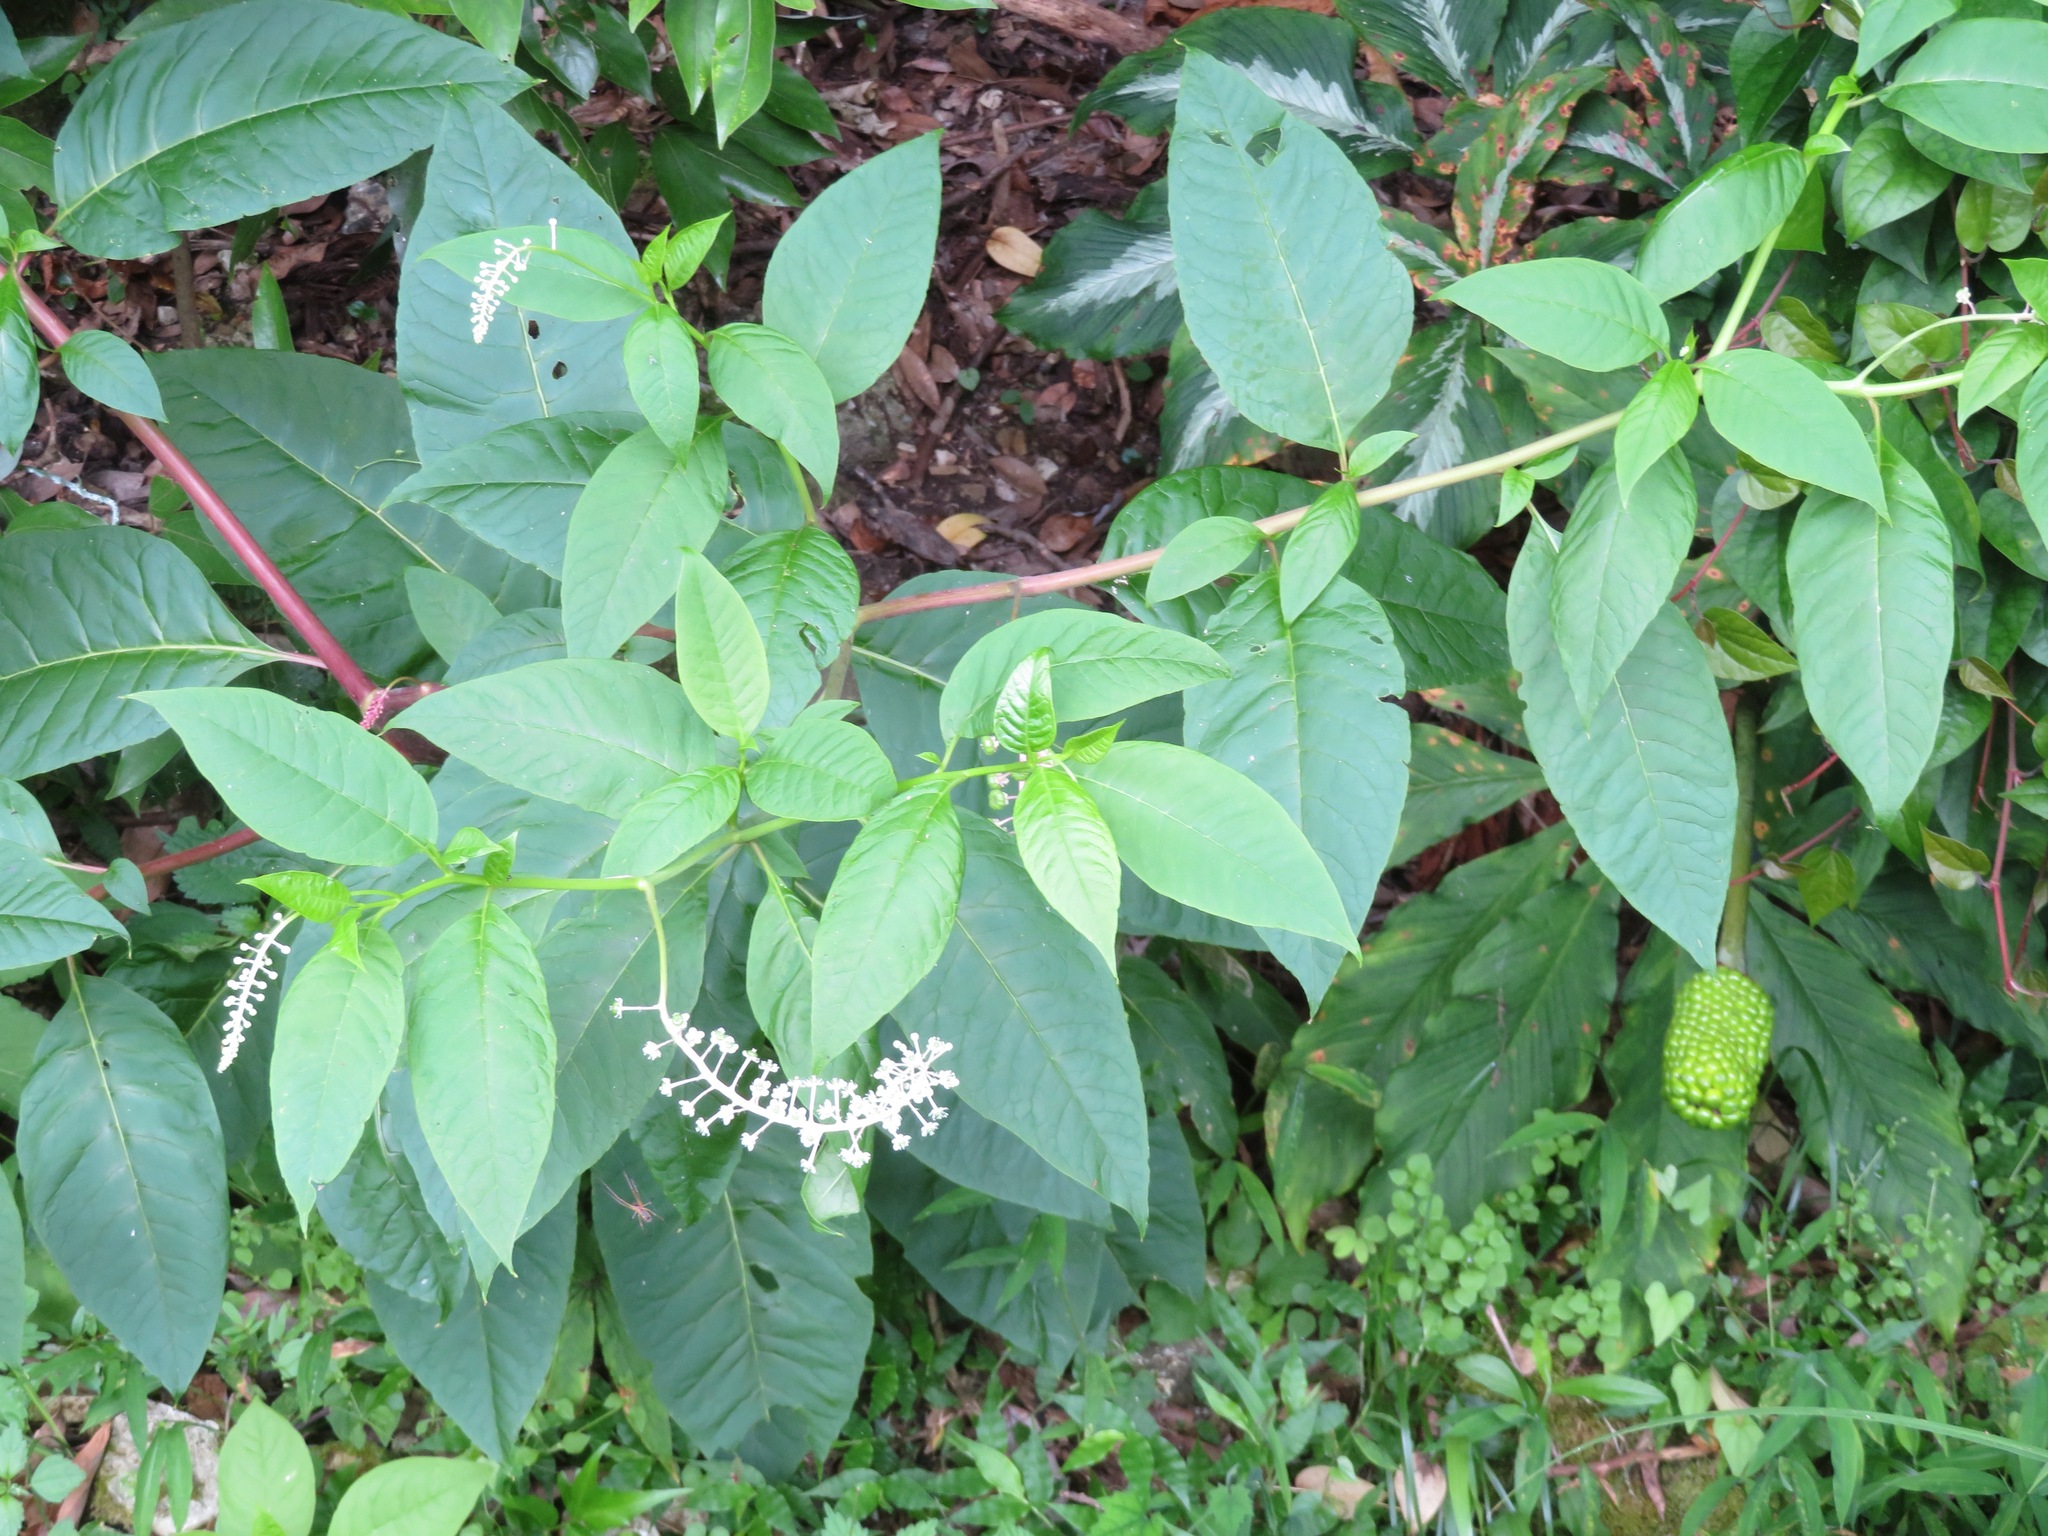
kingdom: Plantae
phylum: Tracheophyta
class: Magnoliopsida
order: Caryophyllales
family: Phytolaccaceae
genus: Phytolacca
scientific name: Phytolacca americana
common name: American pokeweed
